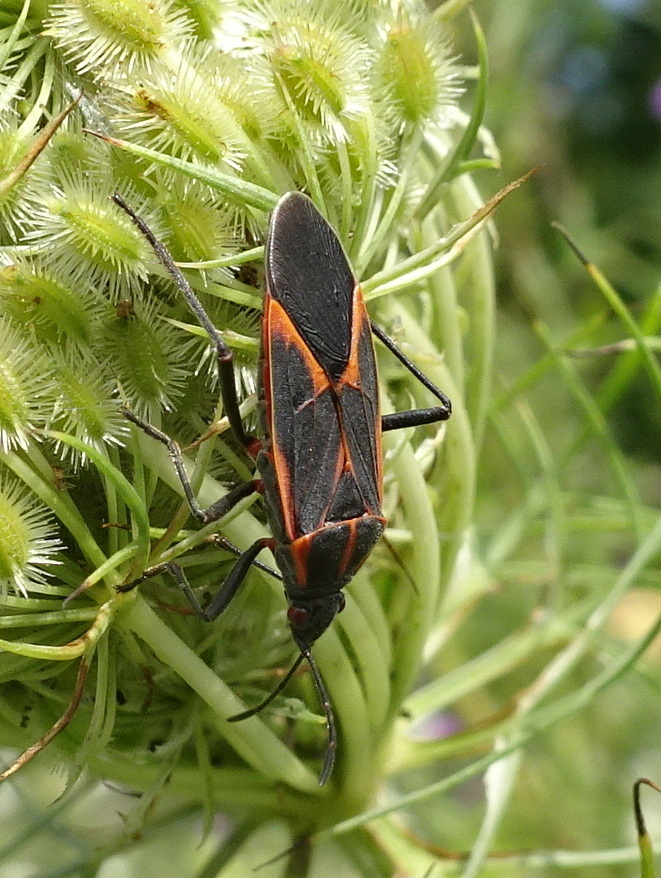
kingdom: Animalia
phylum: Arthropoda
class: Insecta
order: Hemiptera
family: Rhopalidae
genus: Boisea
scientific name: Boisea trivittata
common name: Boxelder bug
